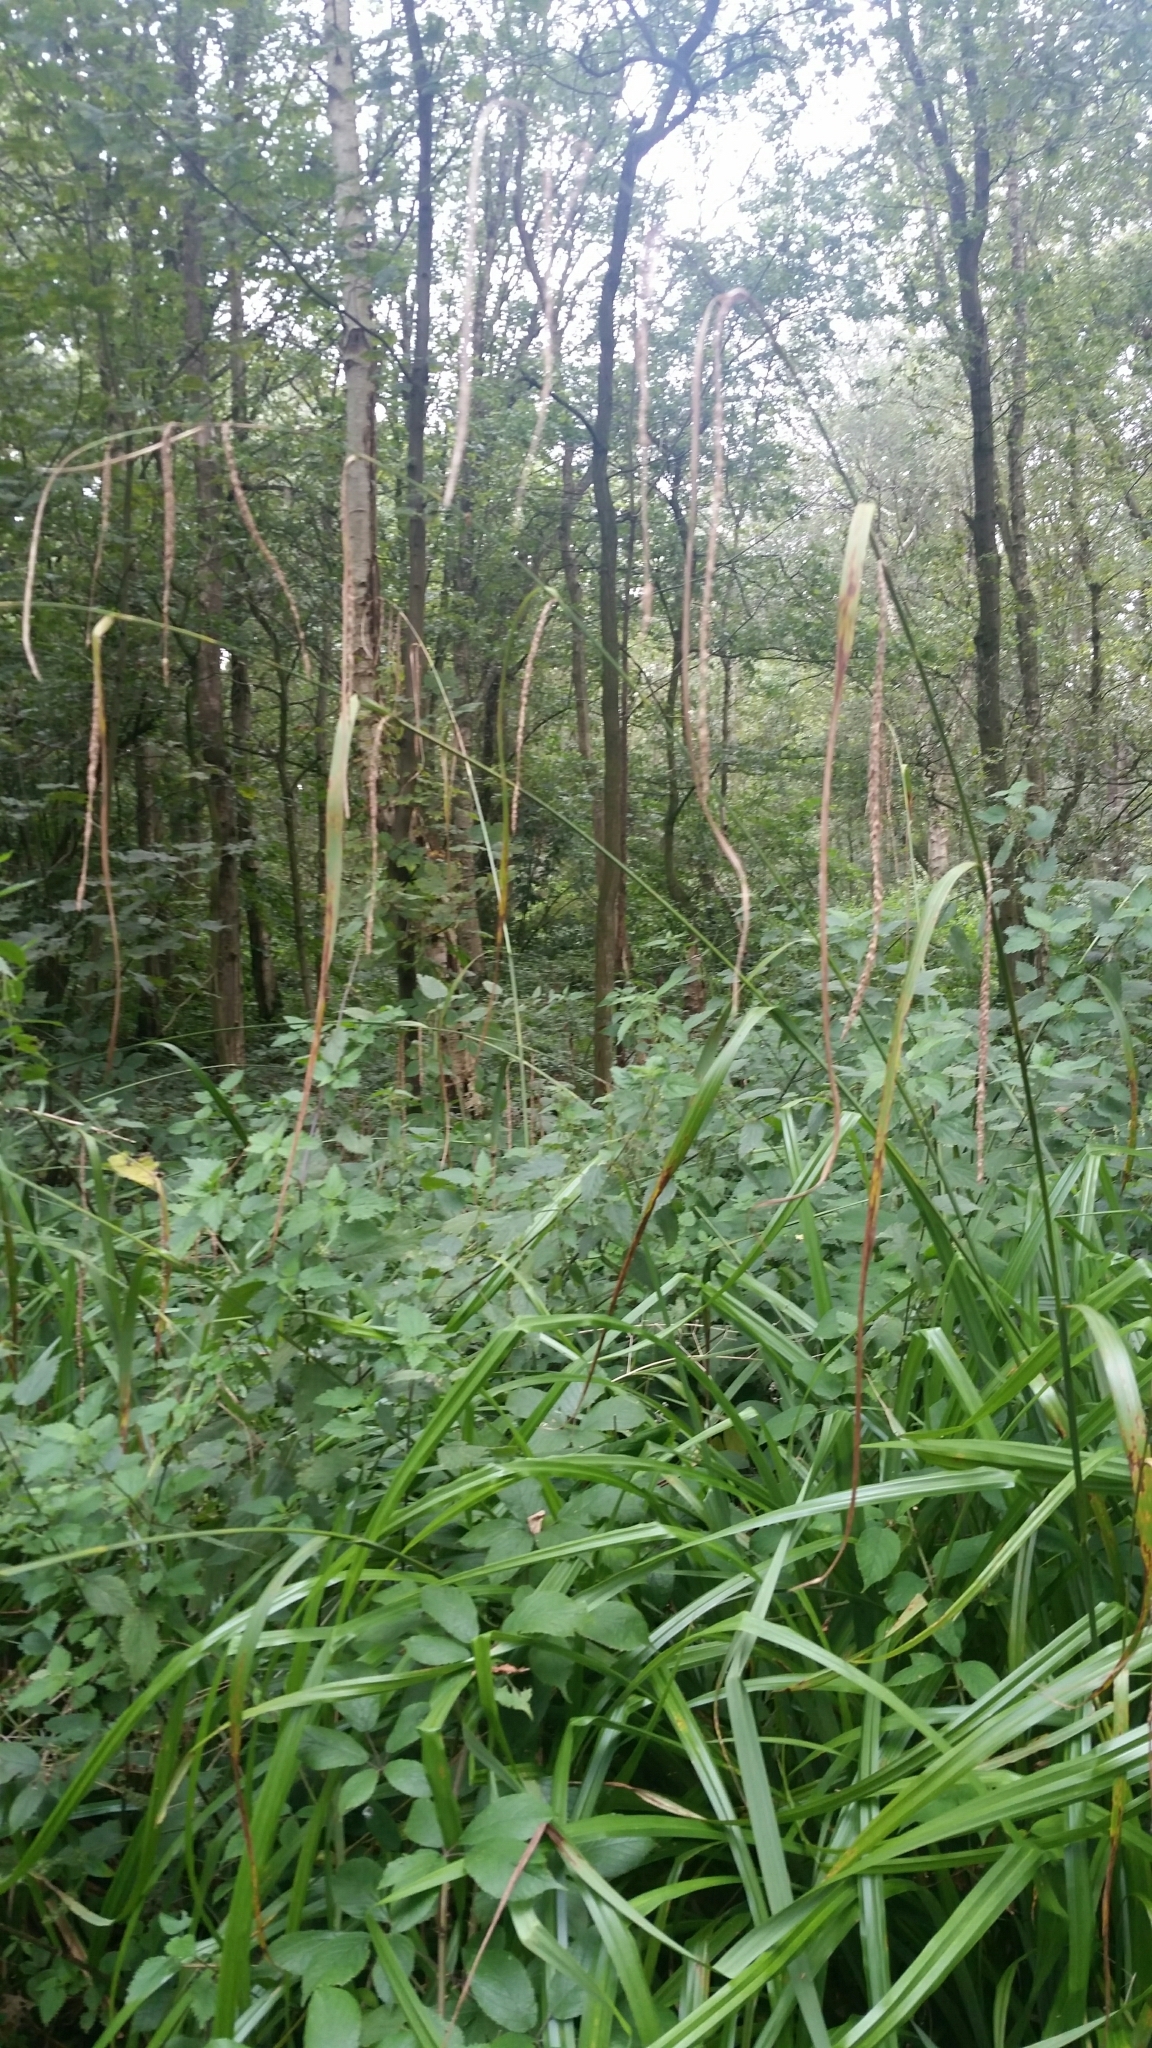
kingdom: Plantae
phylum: Tracheophyta
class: Liliopsida
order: Poales
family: Cyperaceae
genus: Carex
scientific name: Carex pendula
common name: Pendulous sedge
